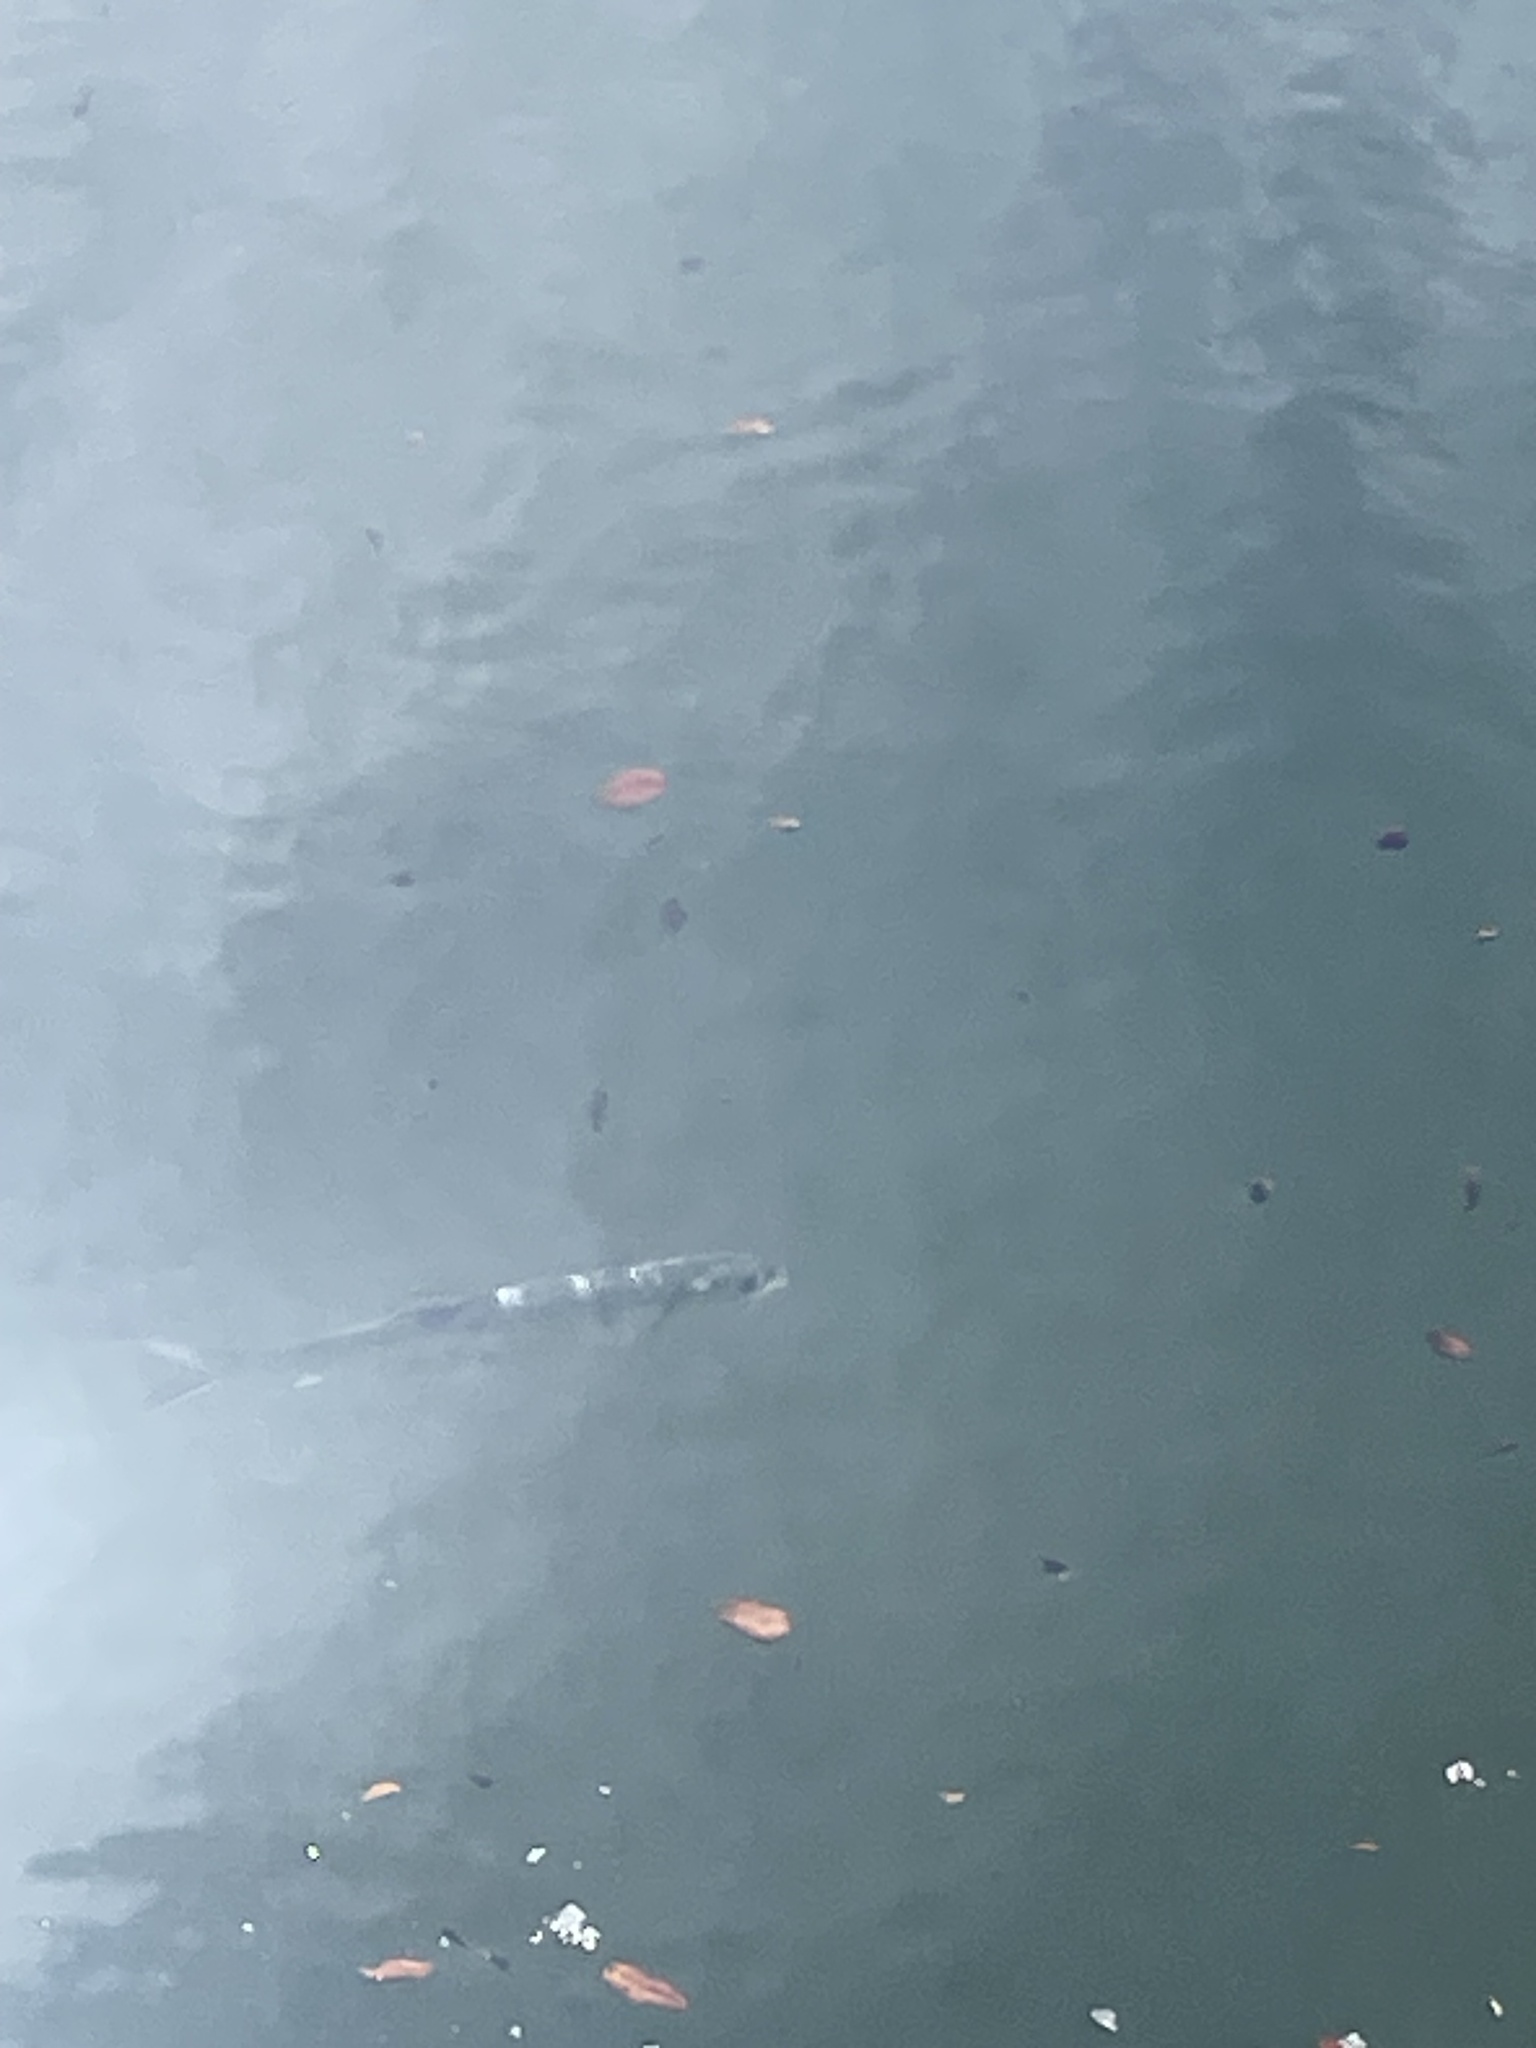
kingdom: Animalia
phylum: Chordata
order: Elopiformes
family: Elopidae
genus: Elops
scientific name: Elops saurus
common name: Ladyfish
